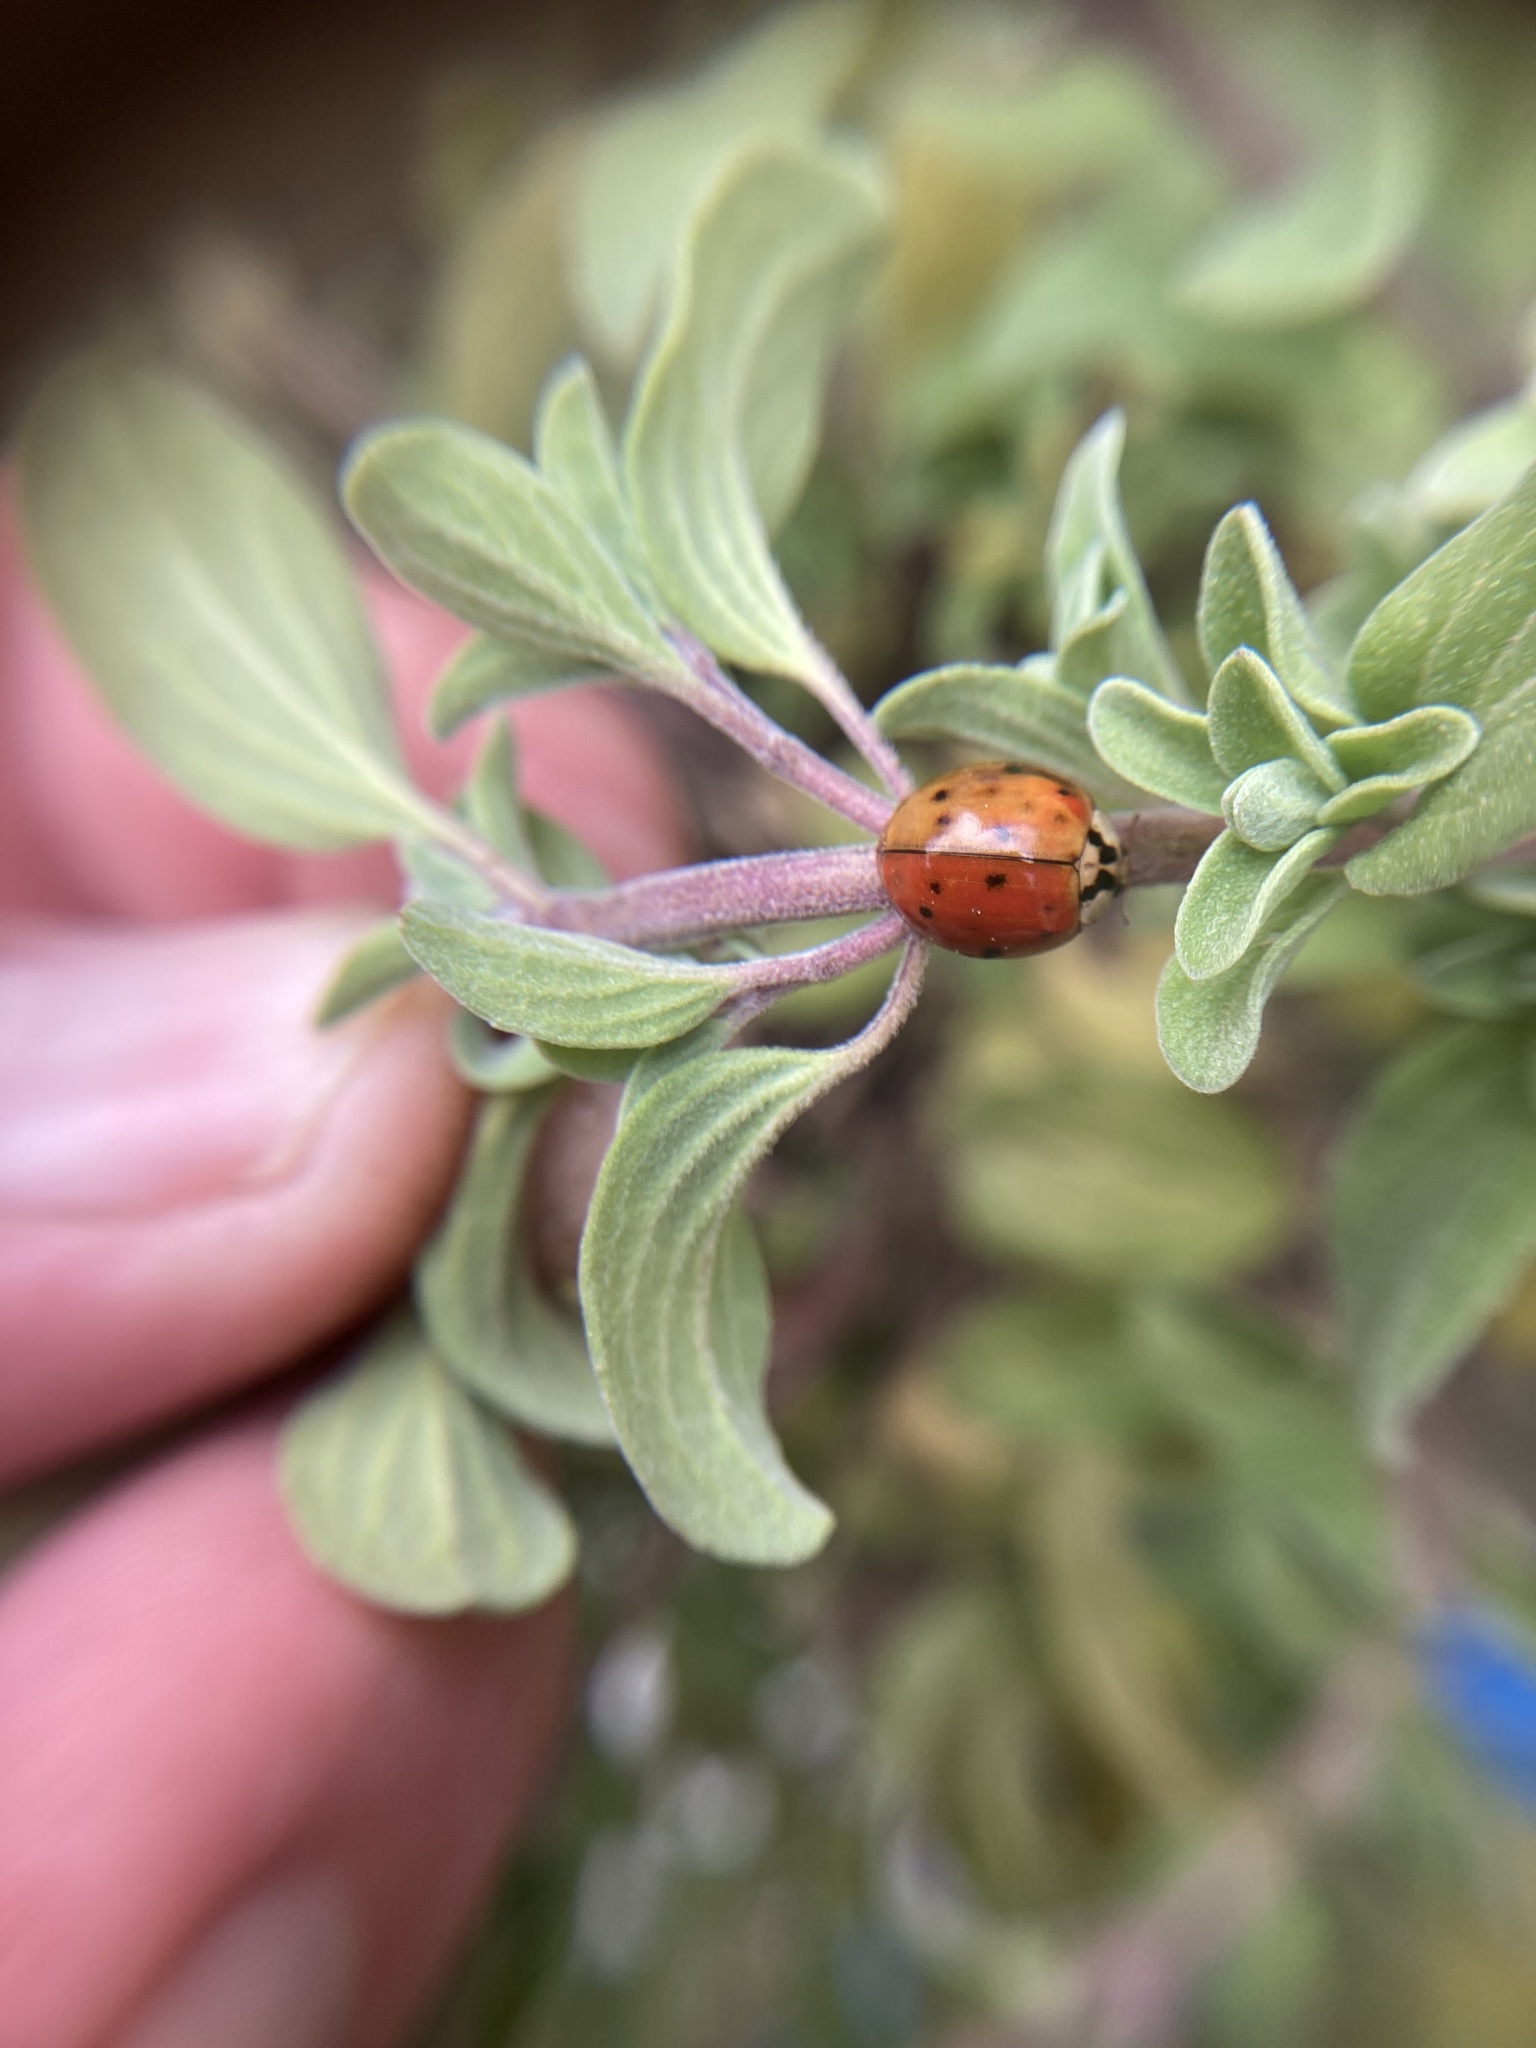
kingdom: Animalia
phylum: Arthropoda
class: Insecta
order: Coleoptera
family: Coccinellidae
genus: Harmonia
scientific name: Harmonia axyridis
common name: Harlequin ladybird
